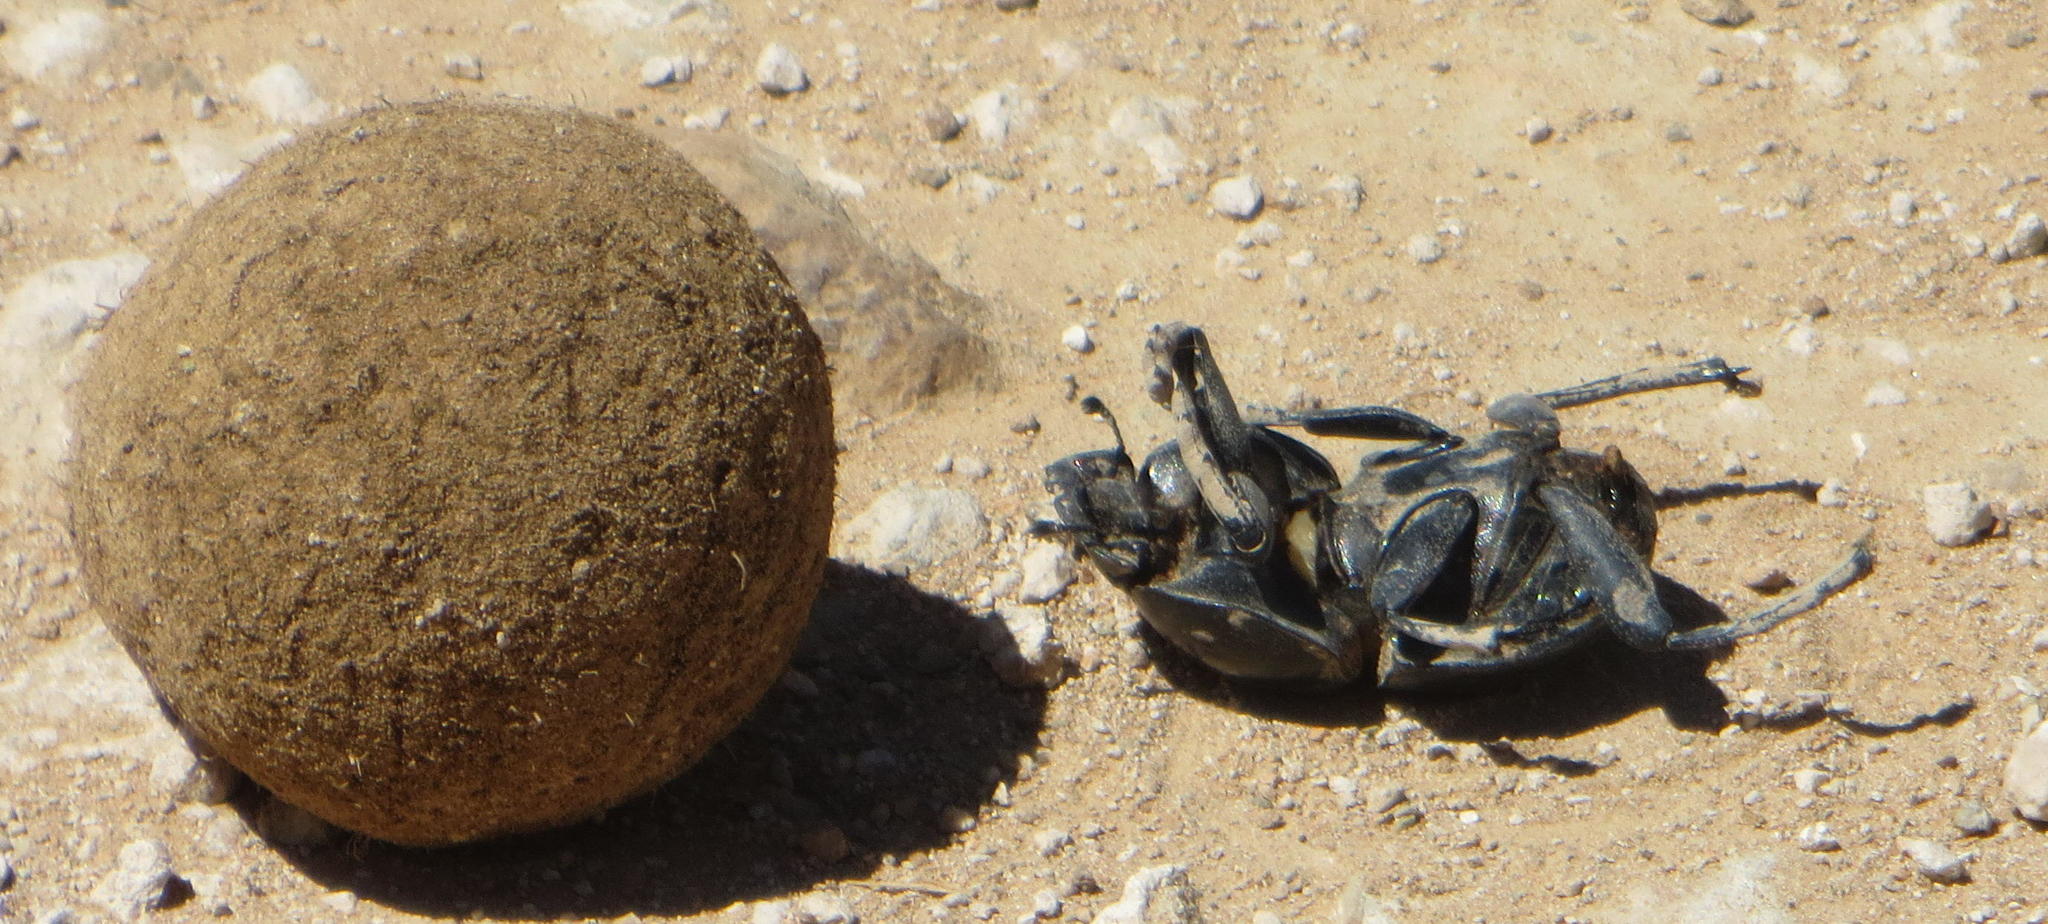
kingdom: Animalia
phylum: Arthropoda
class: Insecta
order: Coleoptera
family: Scarabaeidae
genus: Circellium
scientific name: Circellium bacchus
